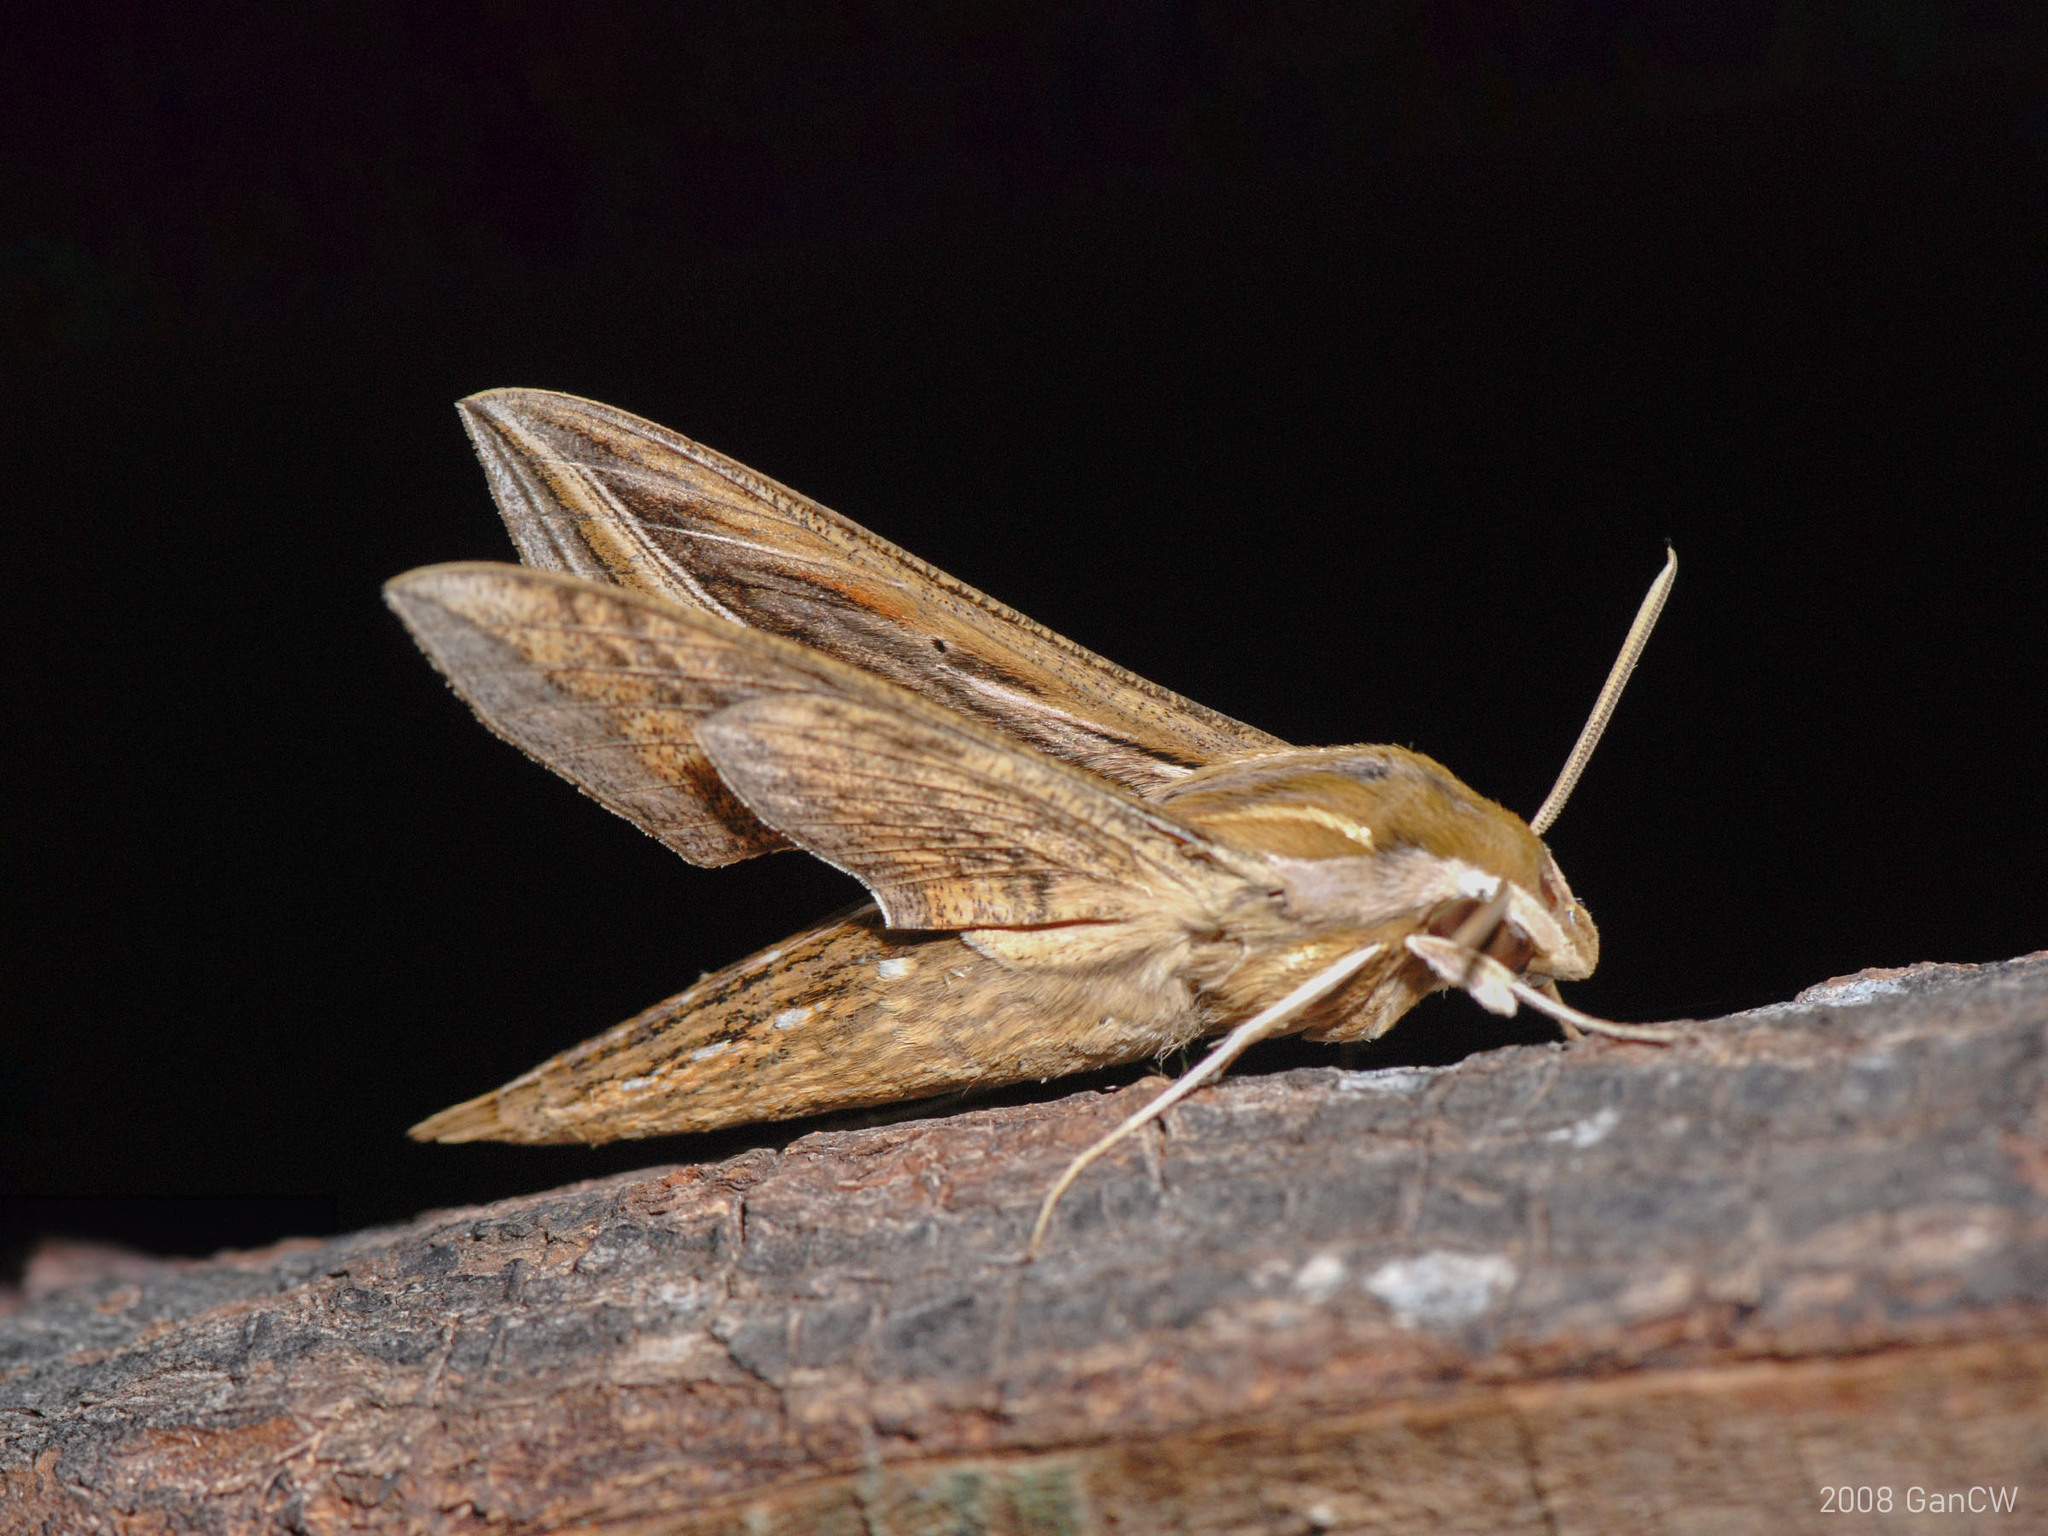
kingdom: Animalia
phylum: Arthropoda
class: Insecta
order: Lepidoptera
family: Sphingidae
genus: Hippotion
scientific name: Hippotion celerio
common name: Silver-striped hawk-moth
